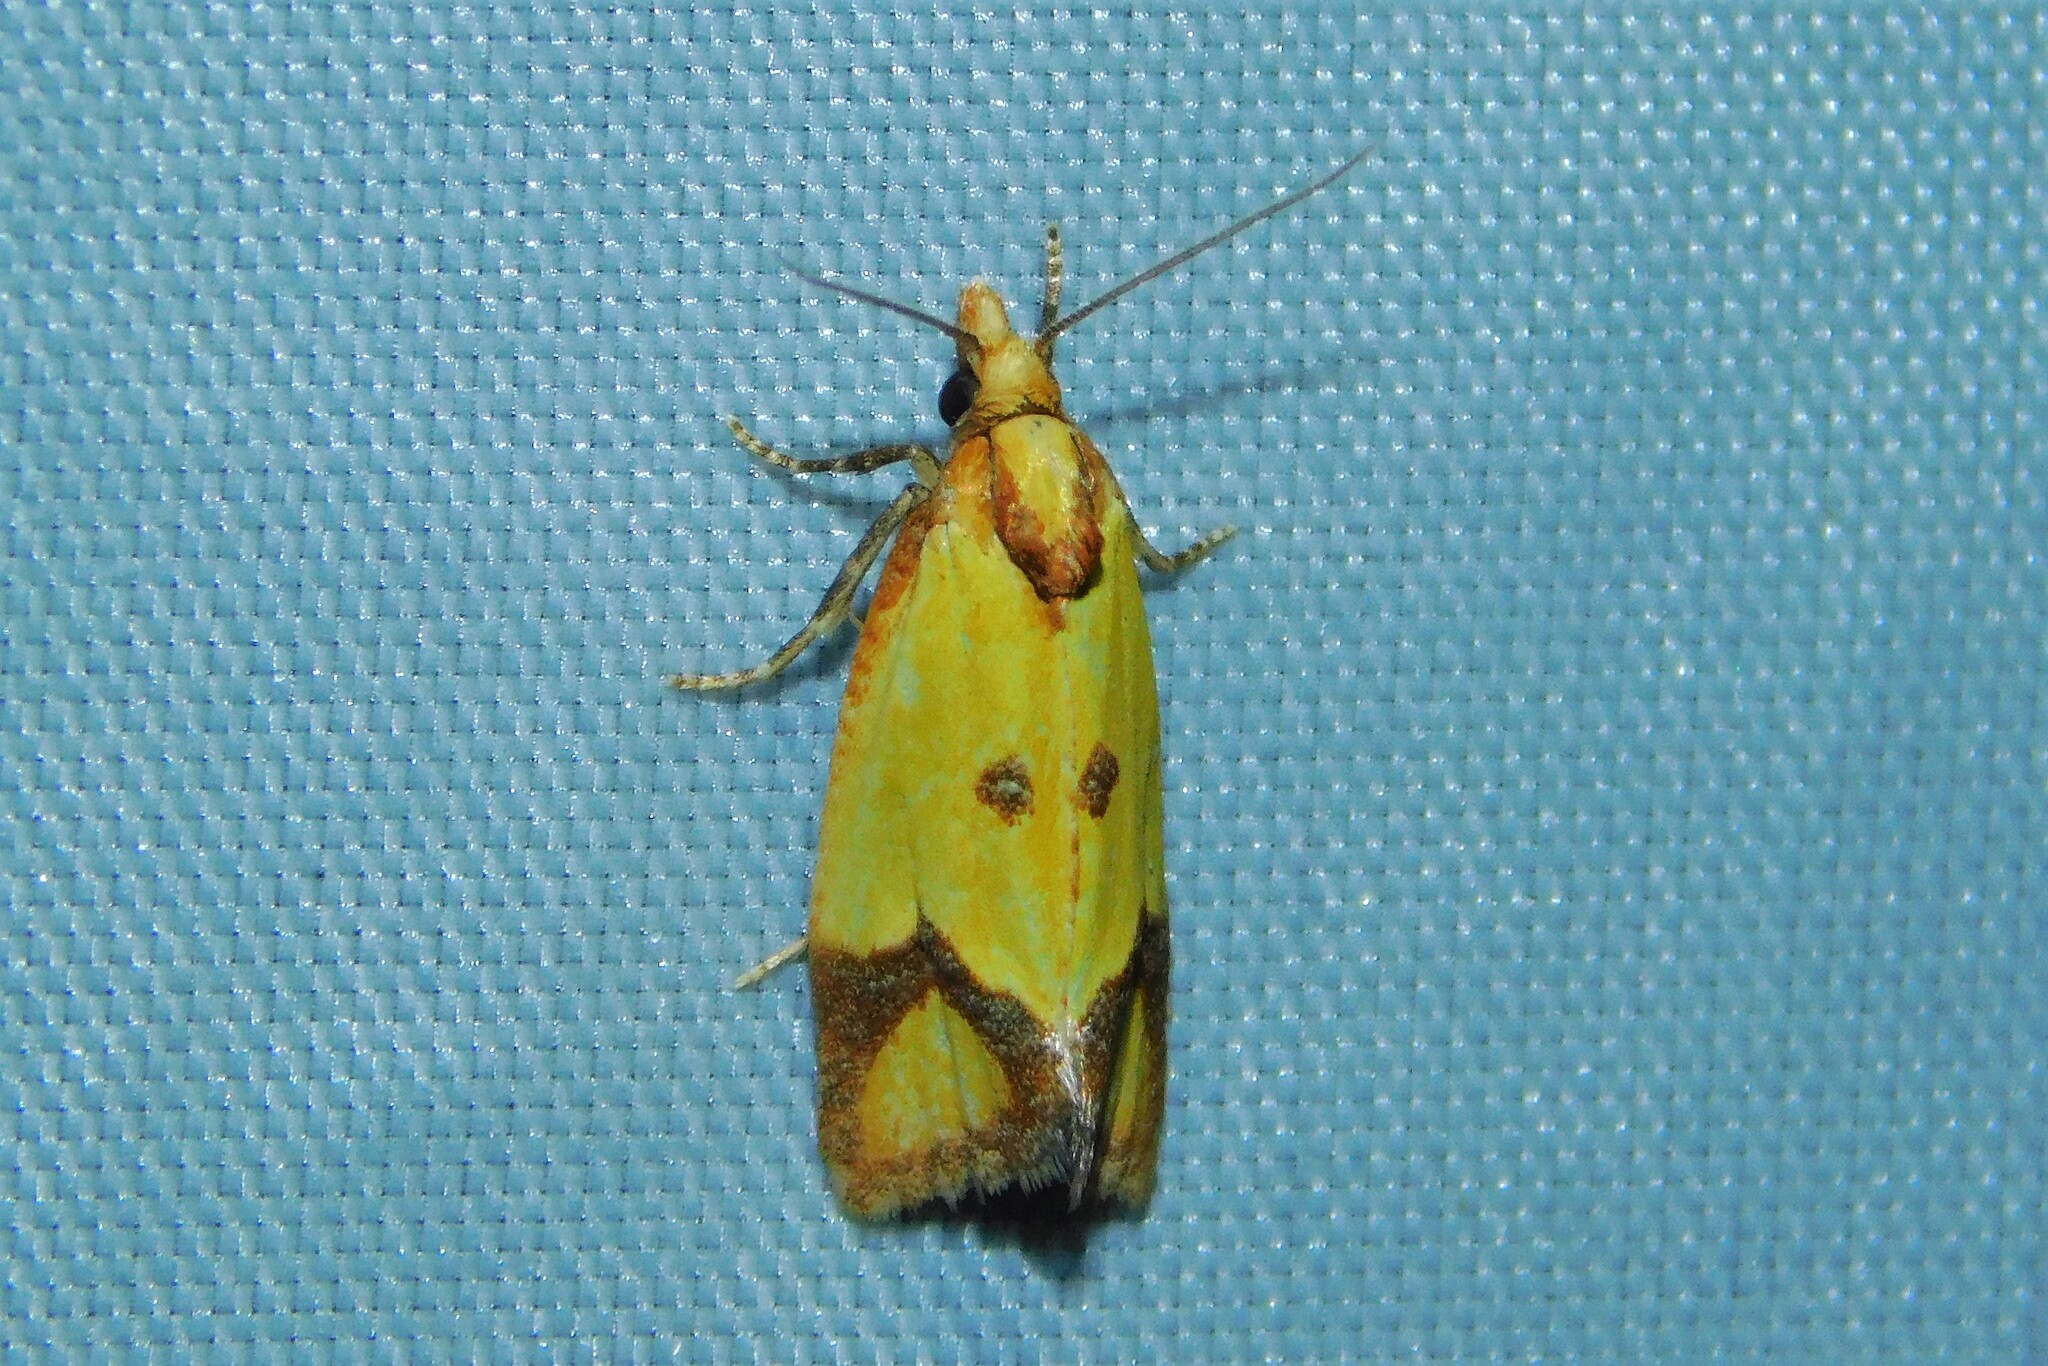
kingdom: Animalia
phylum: Arthropoda
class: Insecta
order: Lepidoptera
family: Tortricidae
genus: Agapeta
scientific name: Agapeta zoegana
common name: Sulfur knapweed root moth
